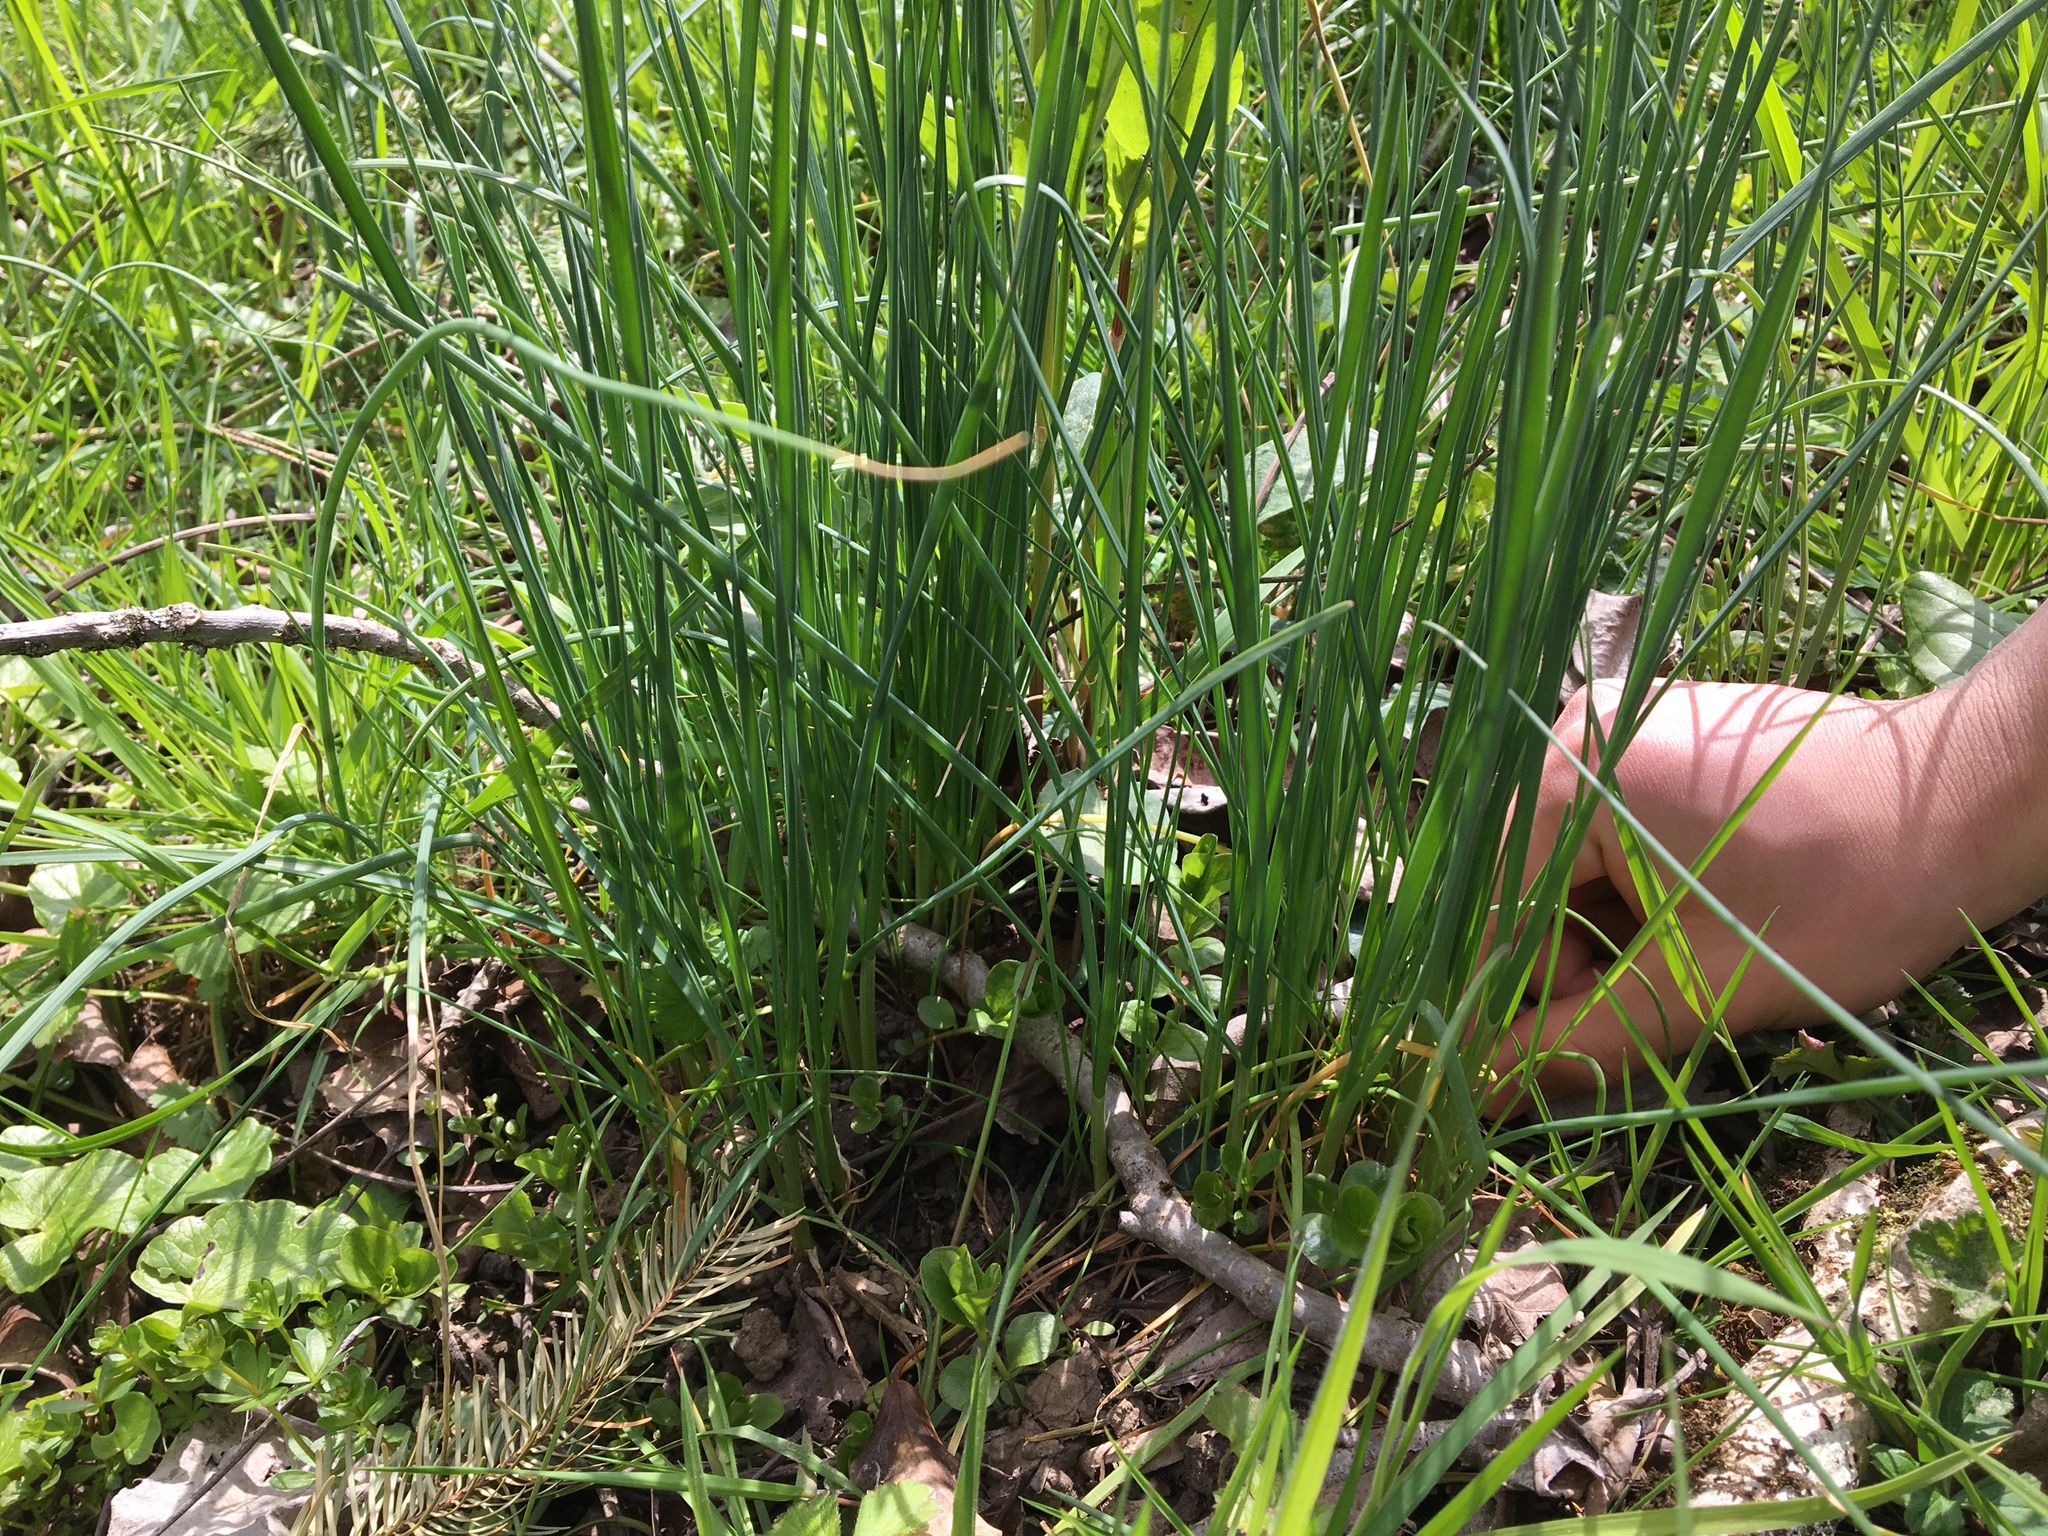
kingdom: Plantae
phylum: Tracheophyta
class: Liliopsida
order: Asparagales
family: Amaryllidaceae
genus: Allium
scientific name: Allium vineale
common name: Crow garlic
